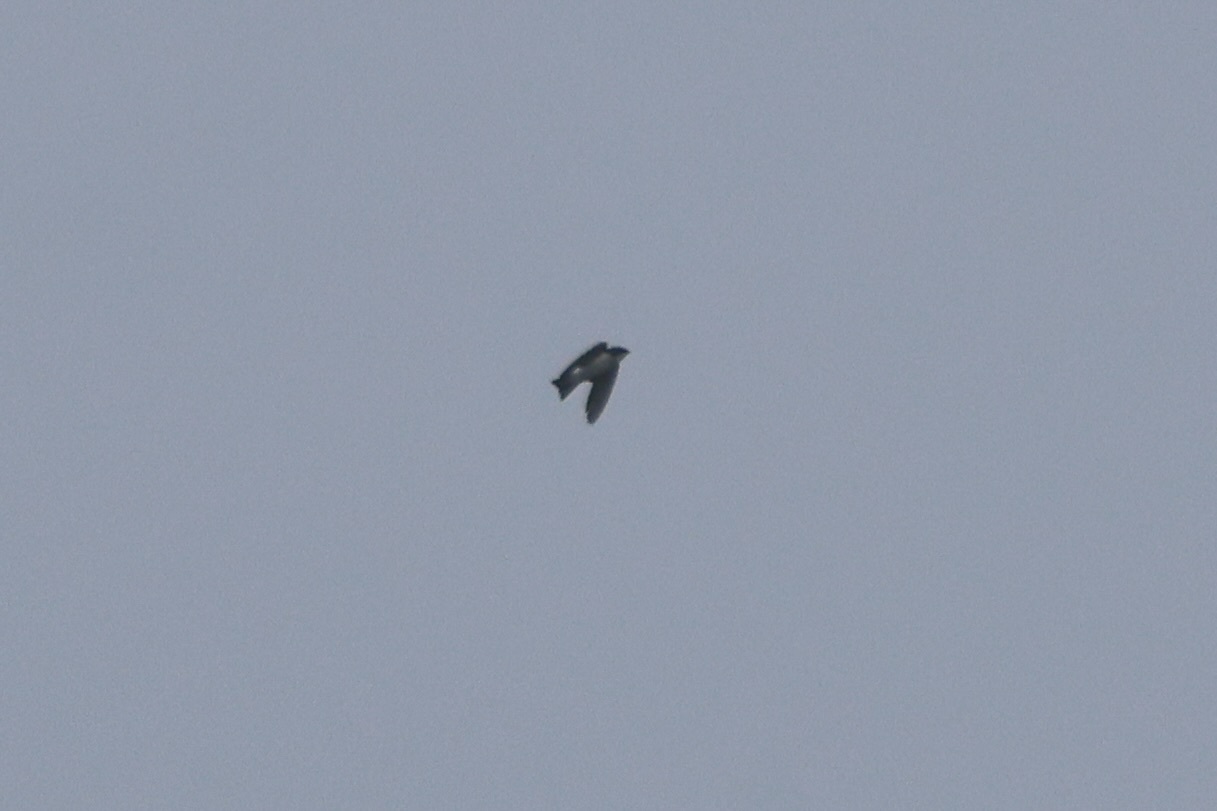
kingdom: Animalia
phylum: Chordata
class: Aves
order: Passeriformes
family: Hirundinidae
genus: Tachycineta
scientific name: Tachycineta bicolor
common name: Tree swallow
